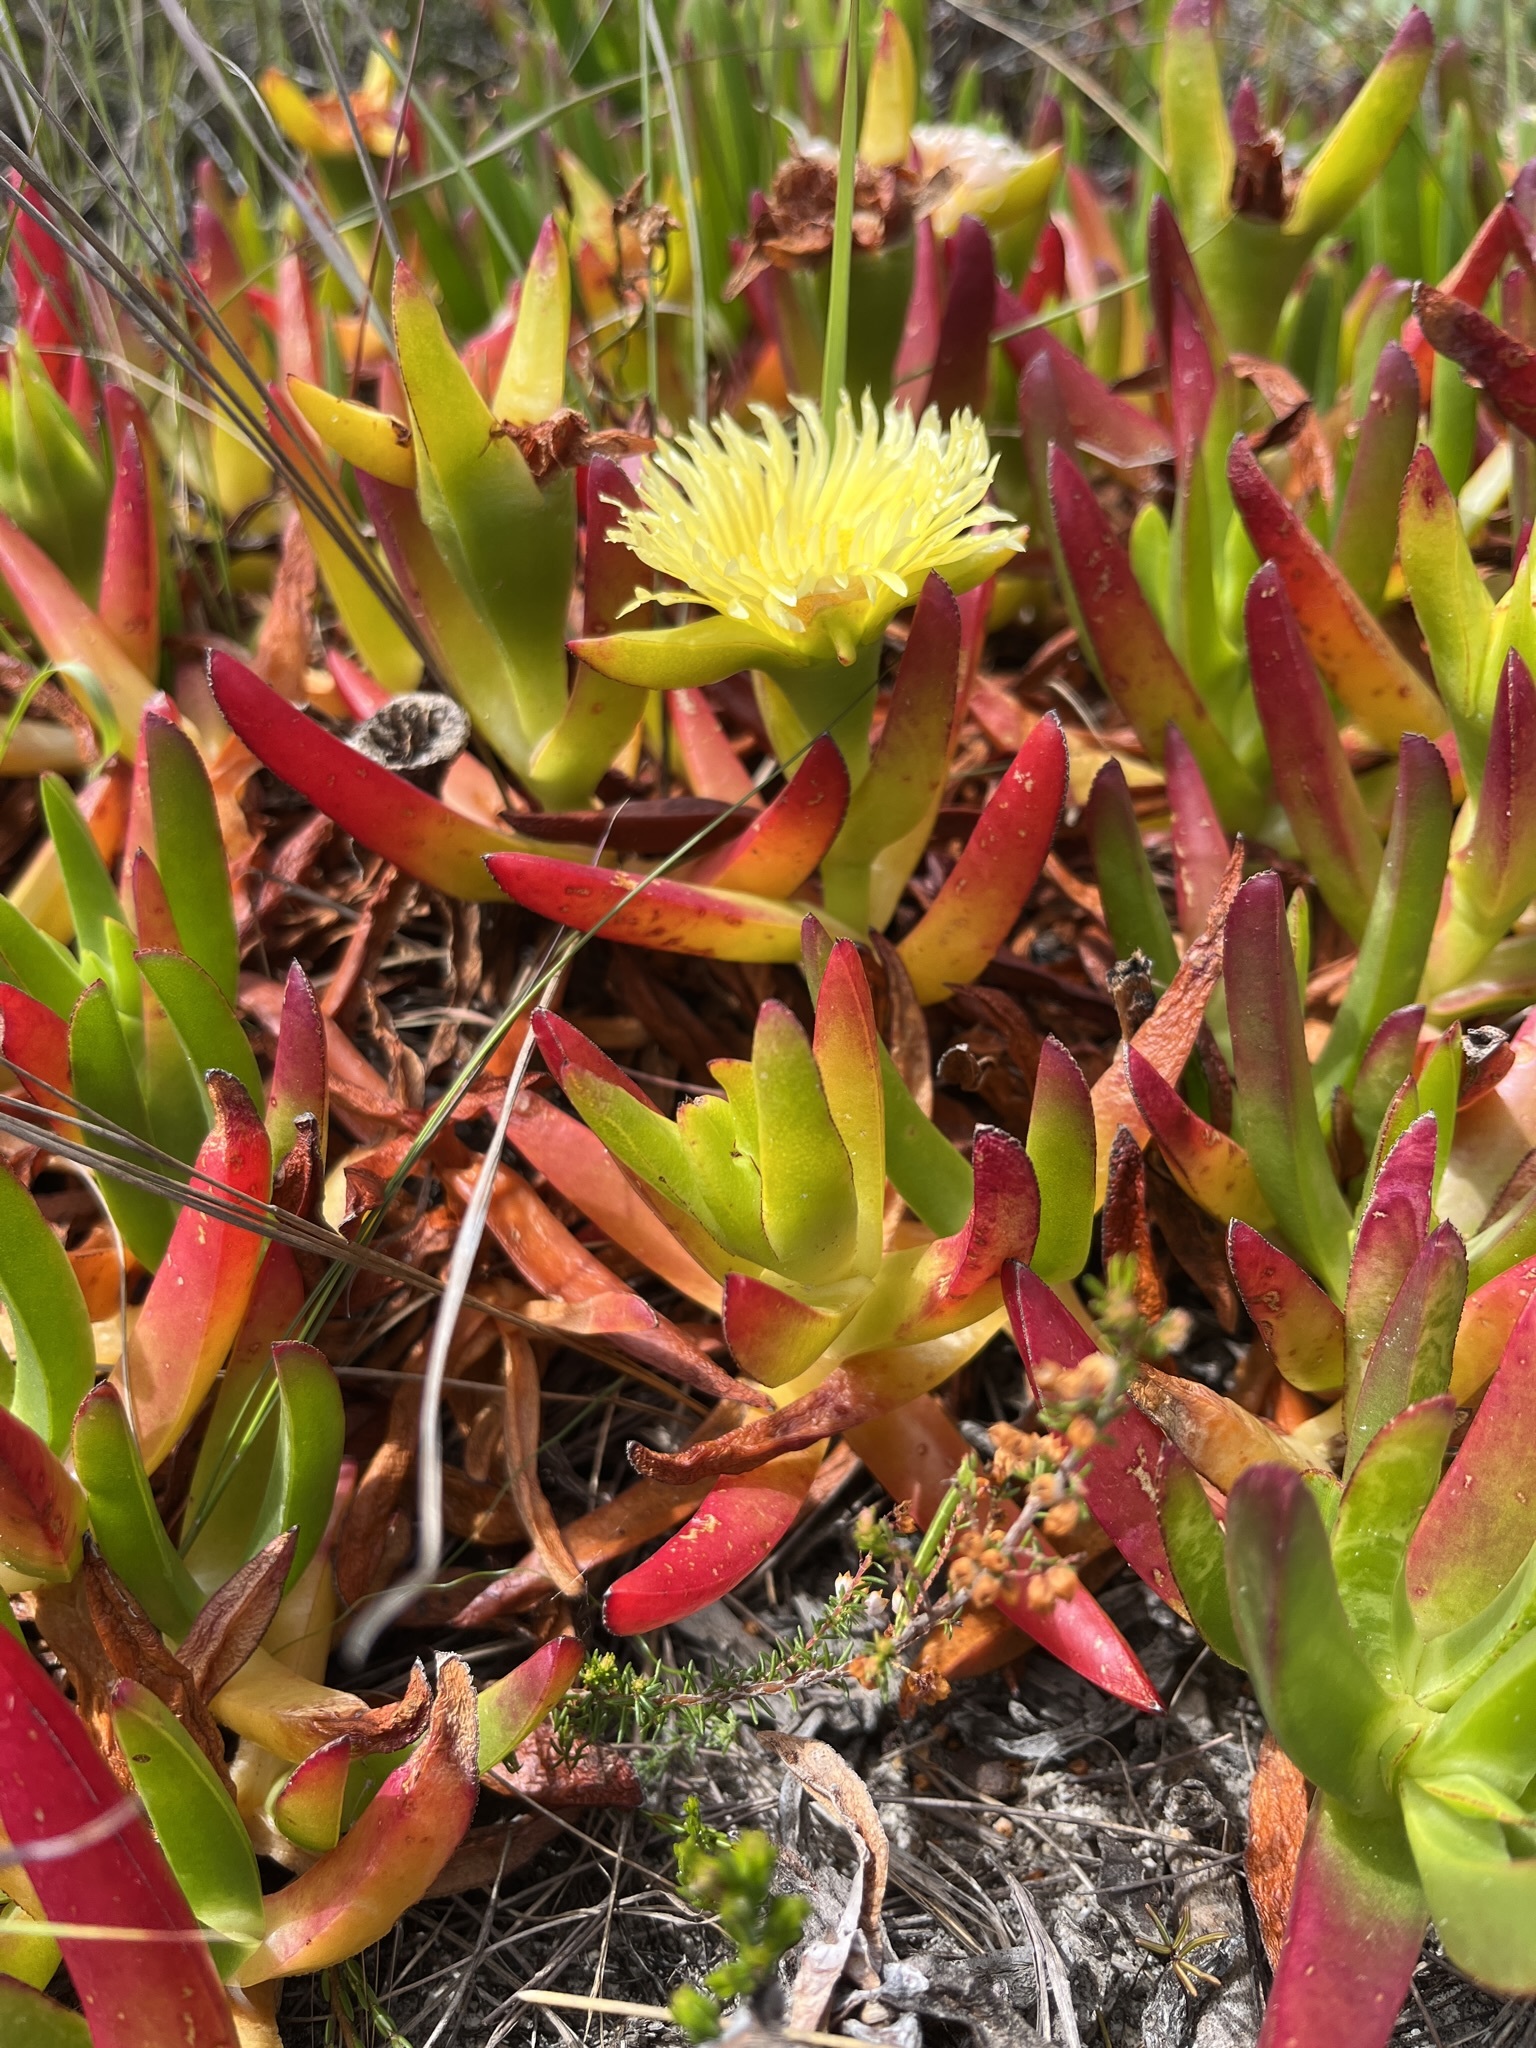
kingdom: Plantae
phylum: Tracheophyta
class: Magnoliopsida
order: Caryophyllales
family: Aizoaceae
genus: Carpobrotus
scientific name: Carpobrotus edulis
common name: Hottentot-fig
